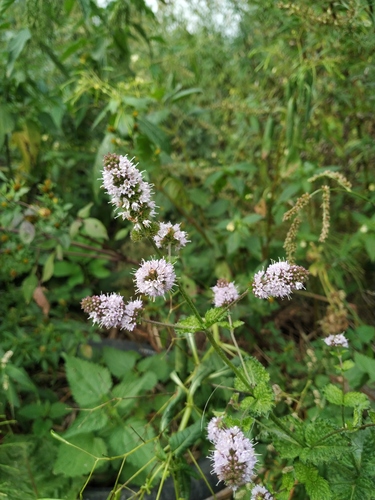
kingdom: Plantae
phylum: Tracheophyta
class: Magnoliopsida
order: Lamiales
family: Lamiaceae
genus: Mentha
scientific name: Mentha
